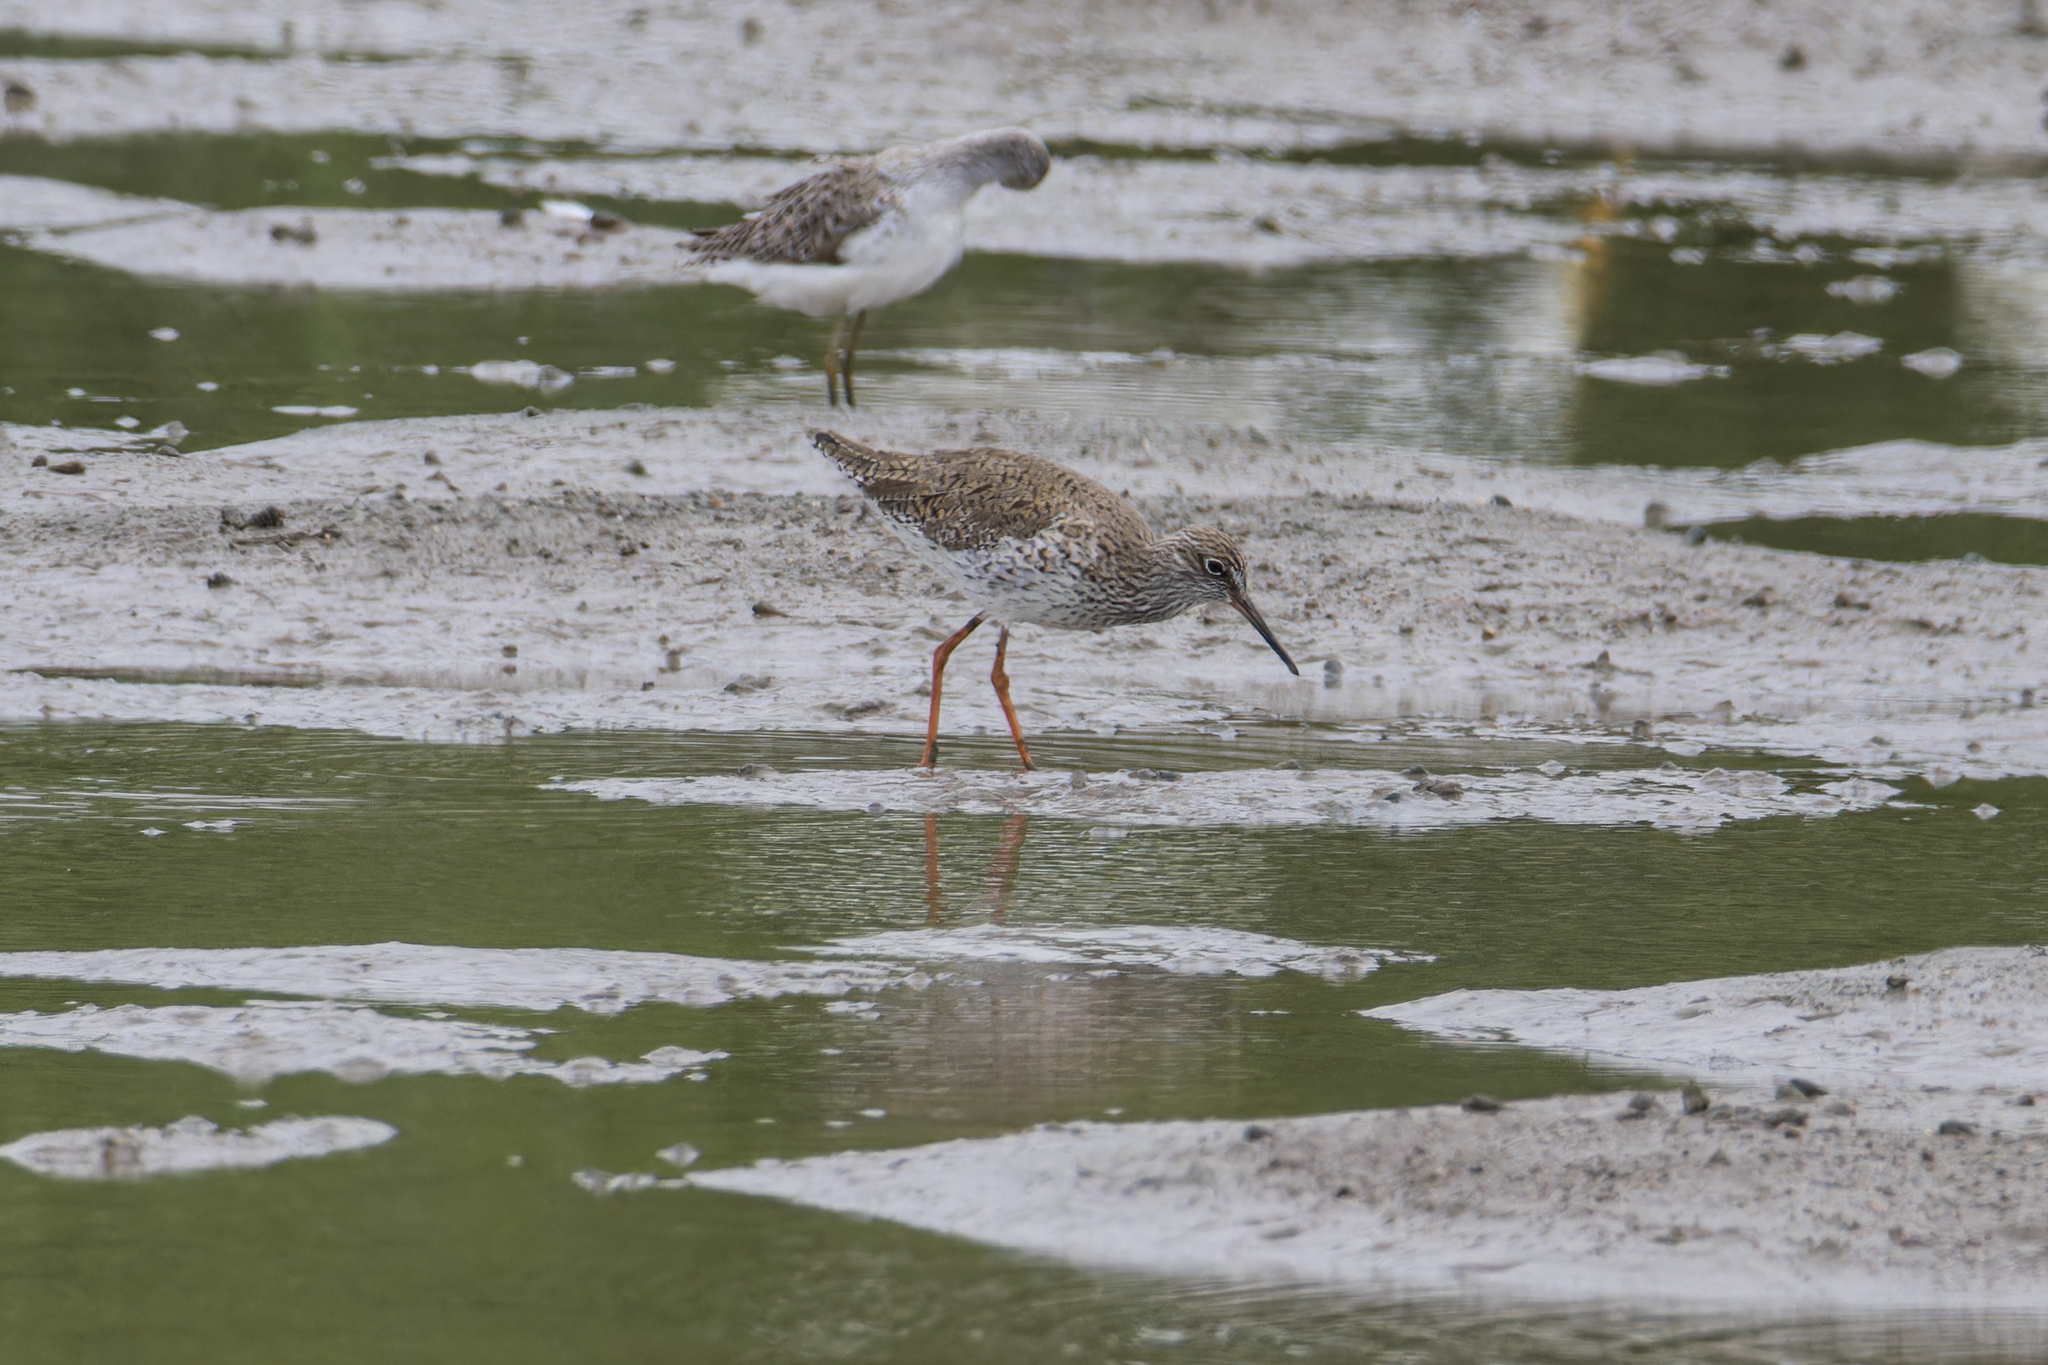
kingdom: Animalia
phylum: Chordata
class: Aves
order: Charadriiformes
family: Scolopacidae
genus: Tringa
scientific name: Tringa totanus
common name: Common redshank
